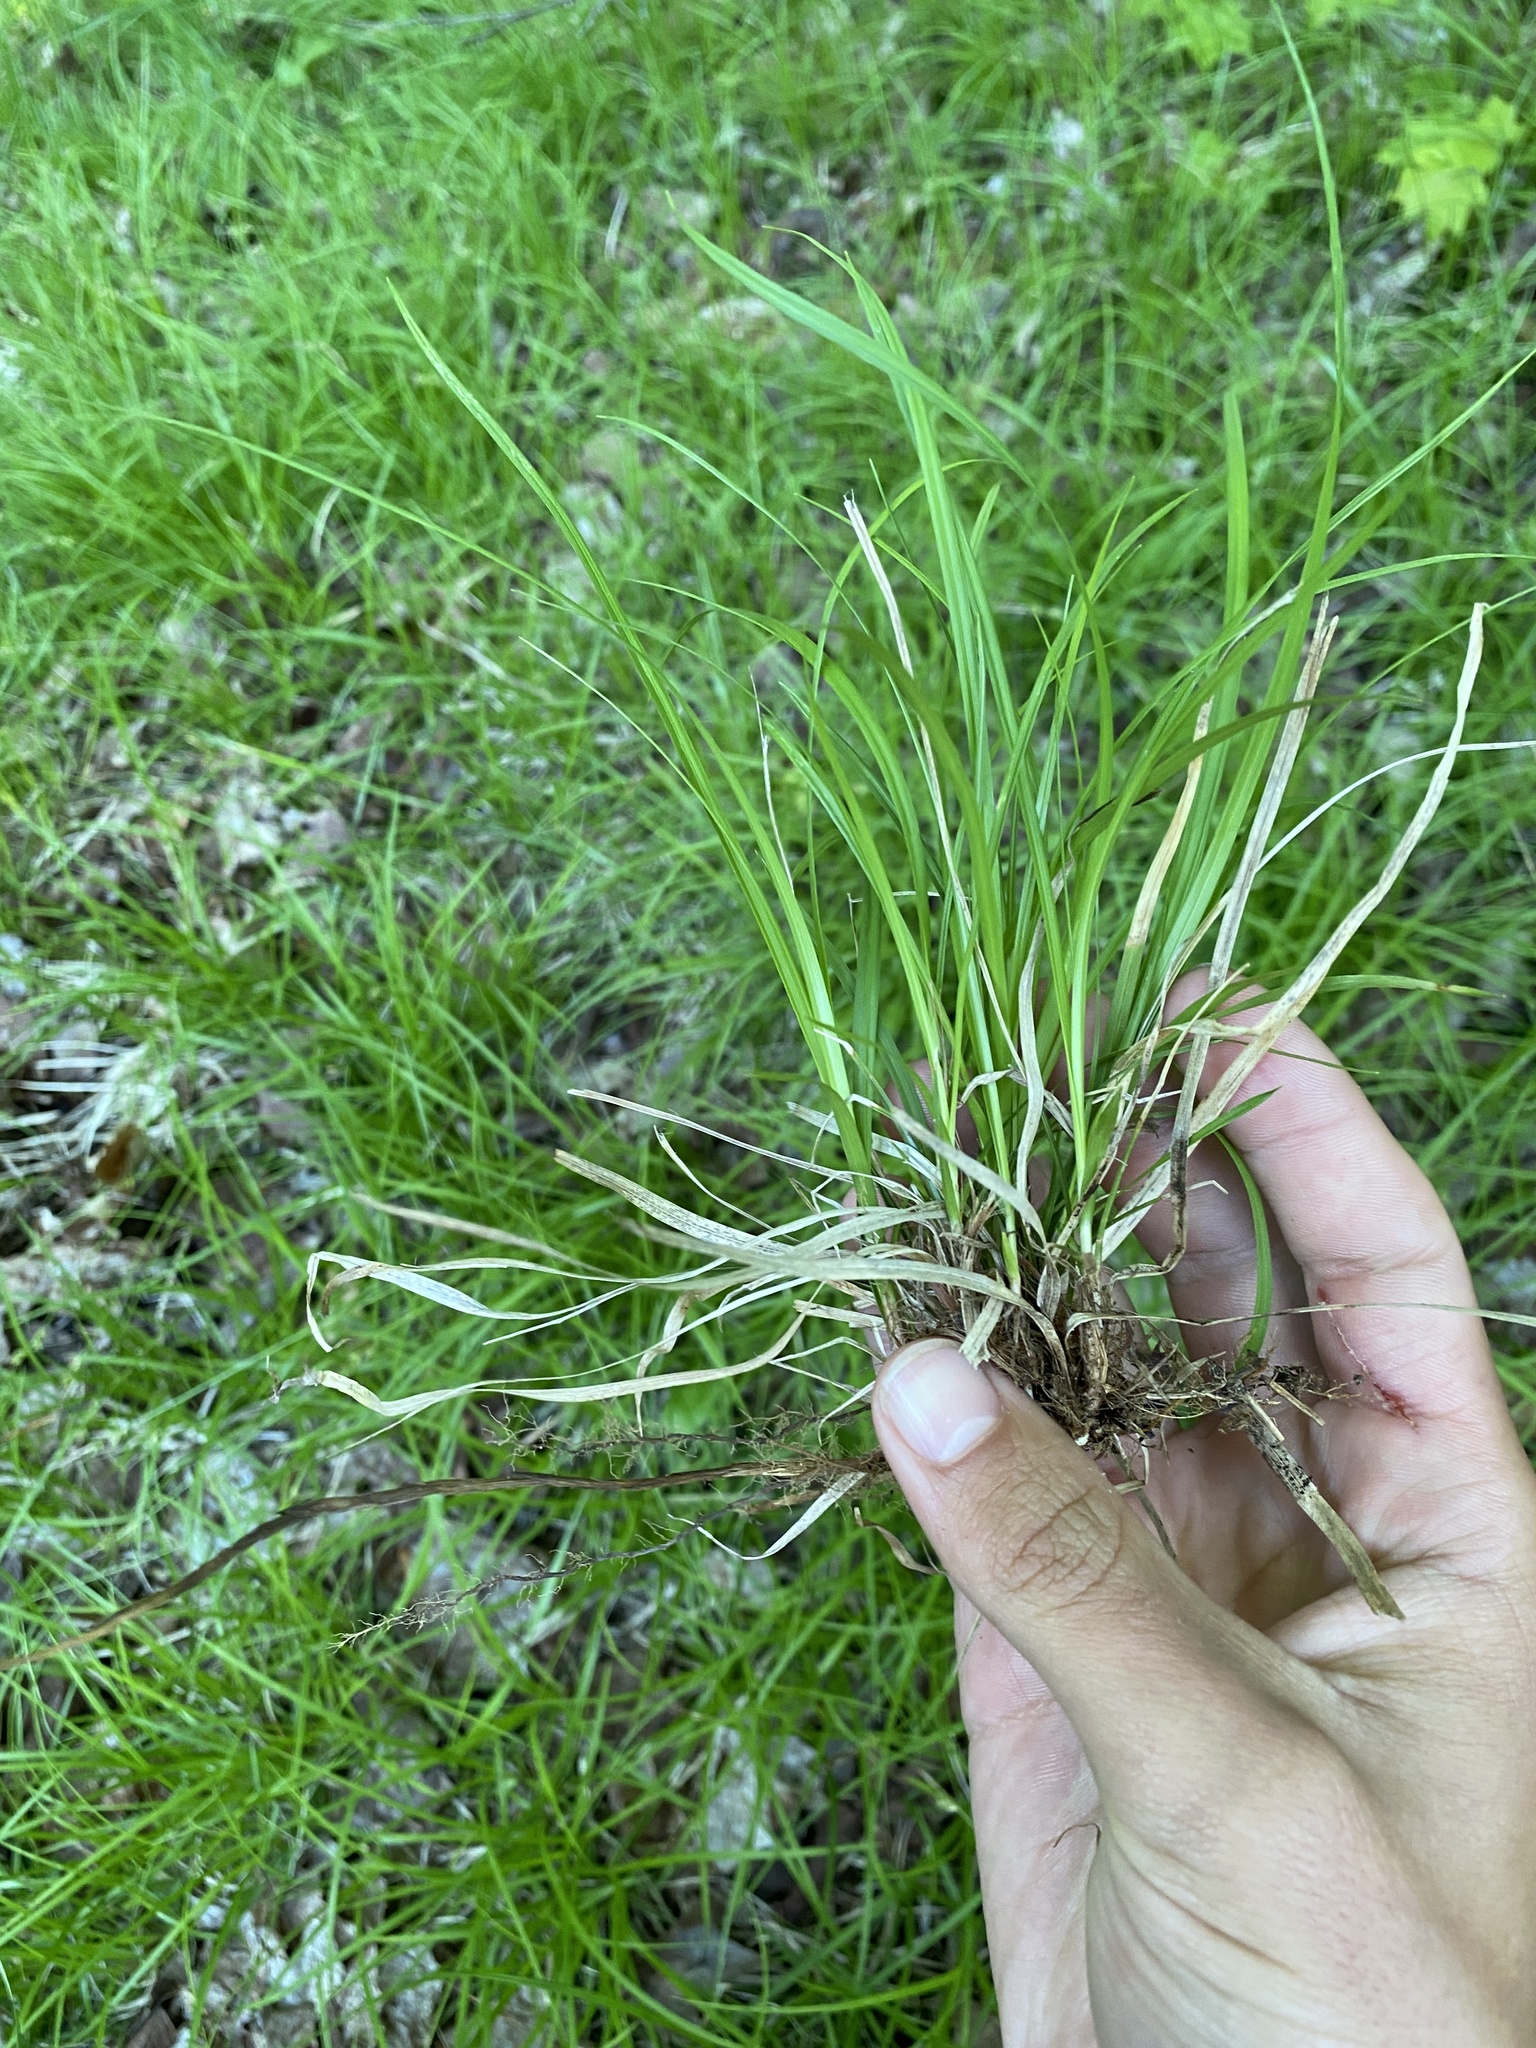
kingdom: Plantae
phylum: Tracheophyta
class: Liliopsida
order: Poales
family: Cyperaceae
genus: Carex
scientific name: Carex lucorum
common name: Blue ridge sedge
